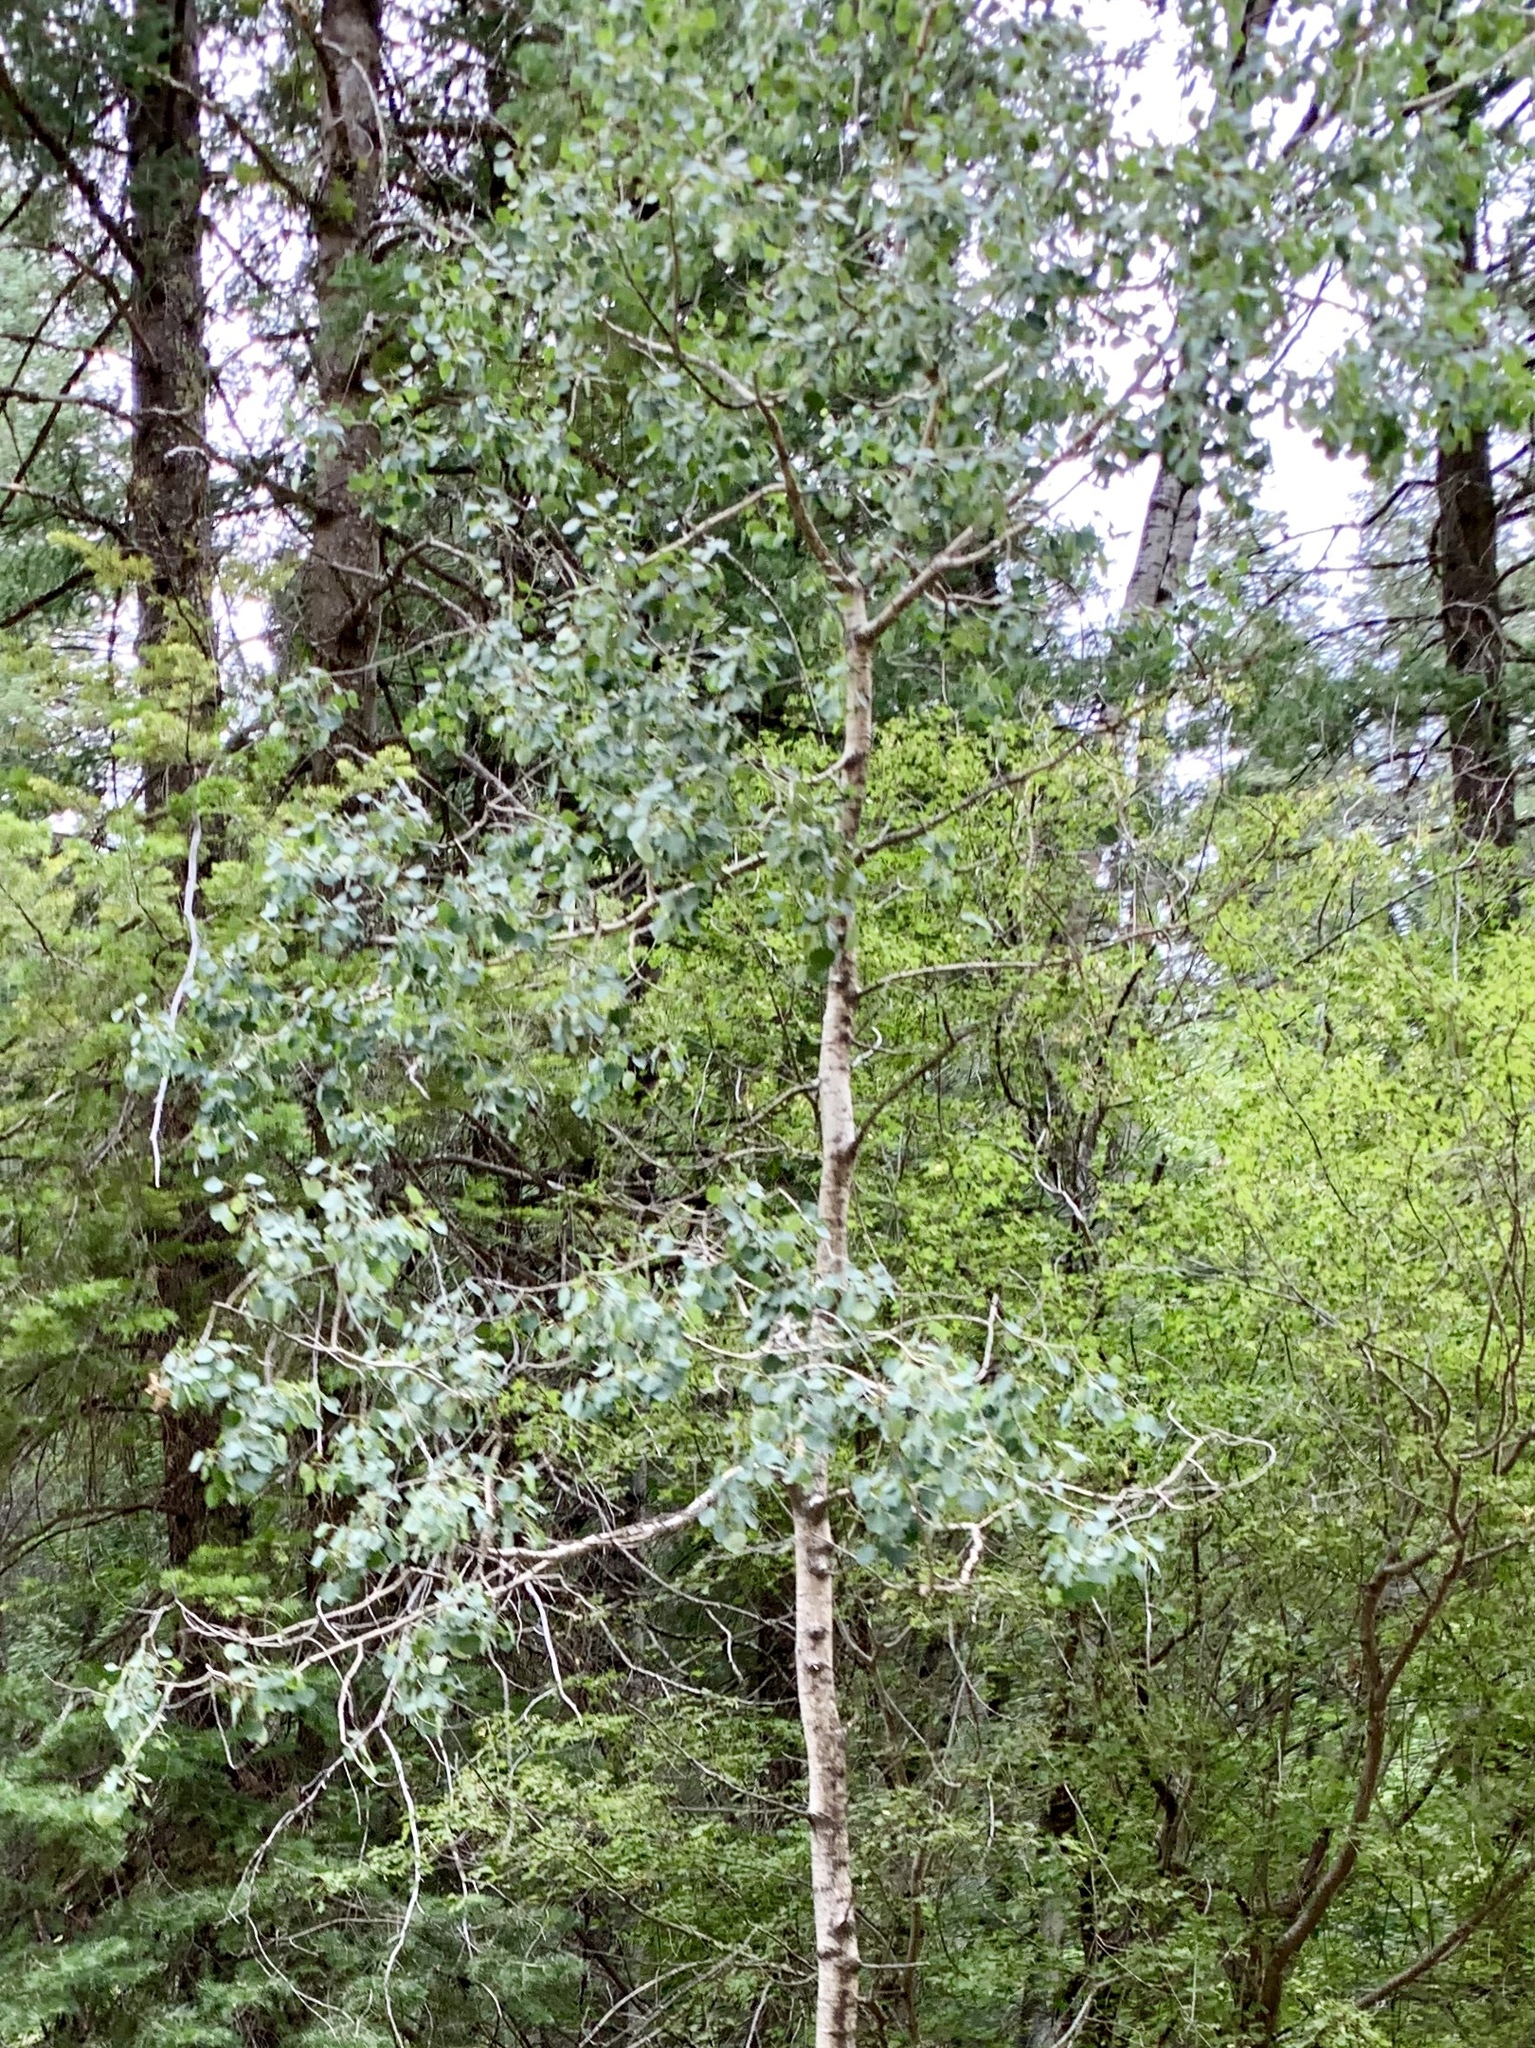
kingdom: Plantae
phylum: Tracheophyta
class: Magnoliopsida
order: Malpighiales
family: Salicaceae
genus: Populus
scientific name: Populus tremuloides
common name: Quaking aspen
